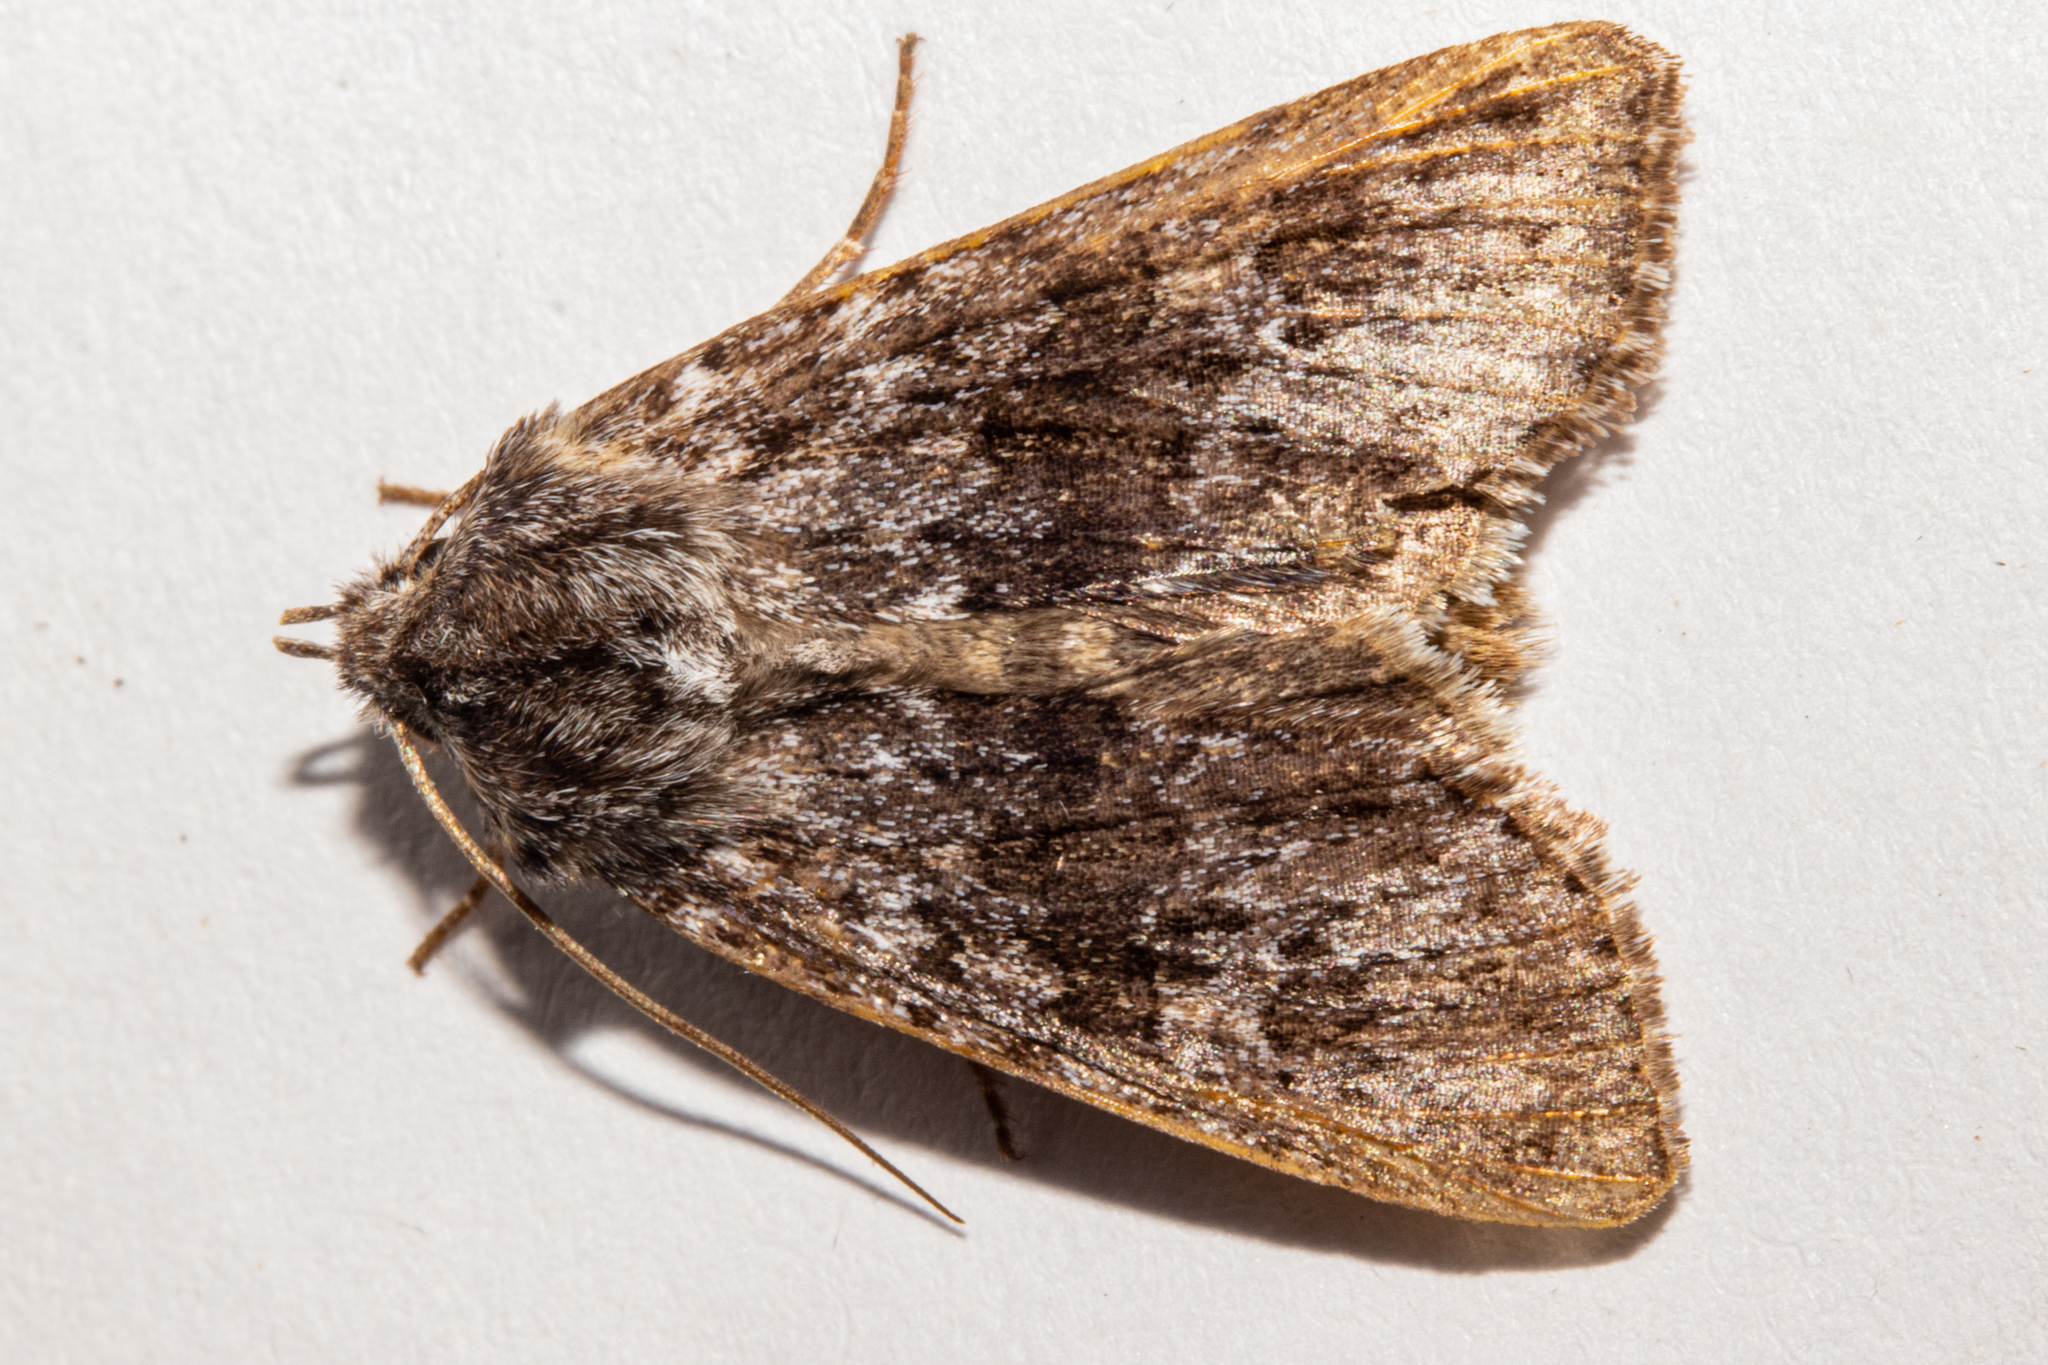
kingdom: Animalia
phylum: Arthropoda
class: Insecta
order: Lepidoptera
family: Noctuidae
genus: Physetica
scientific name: Physetica
